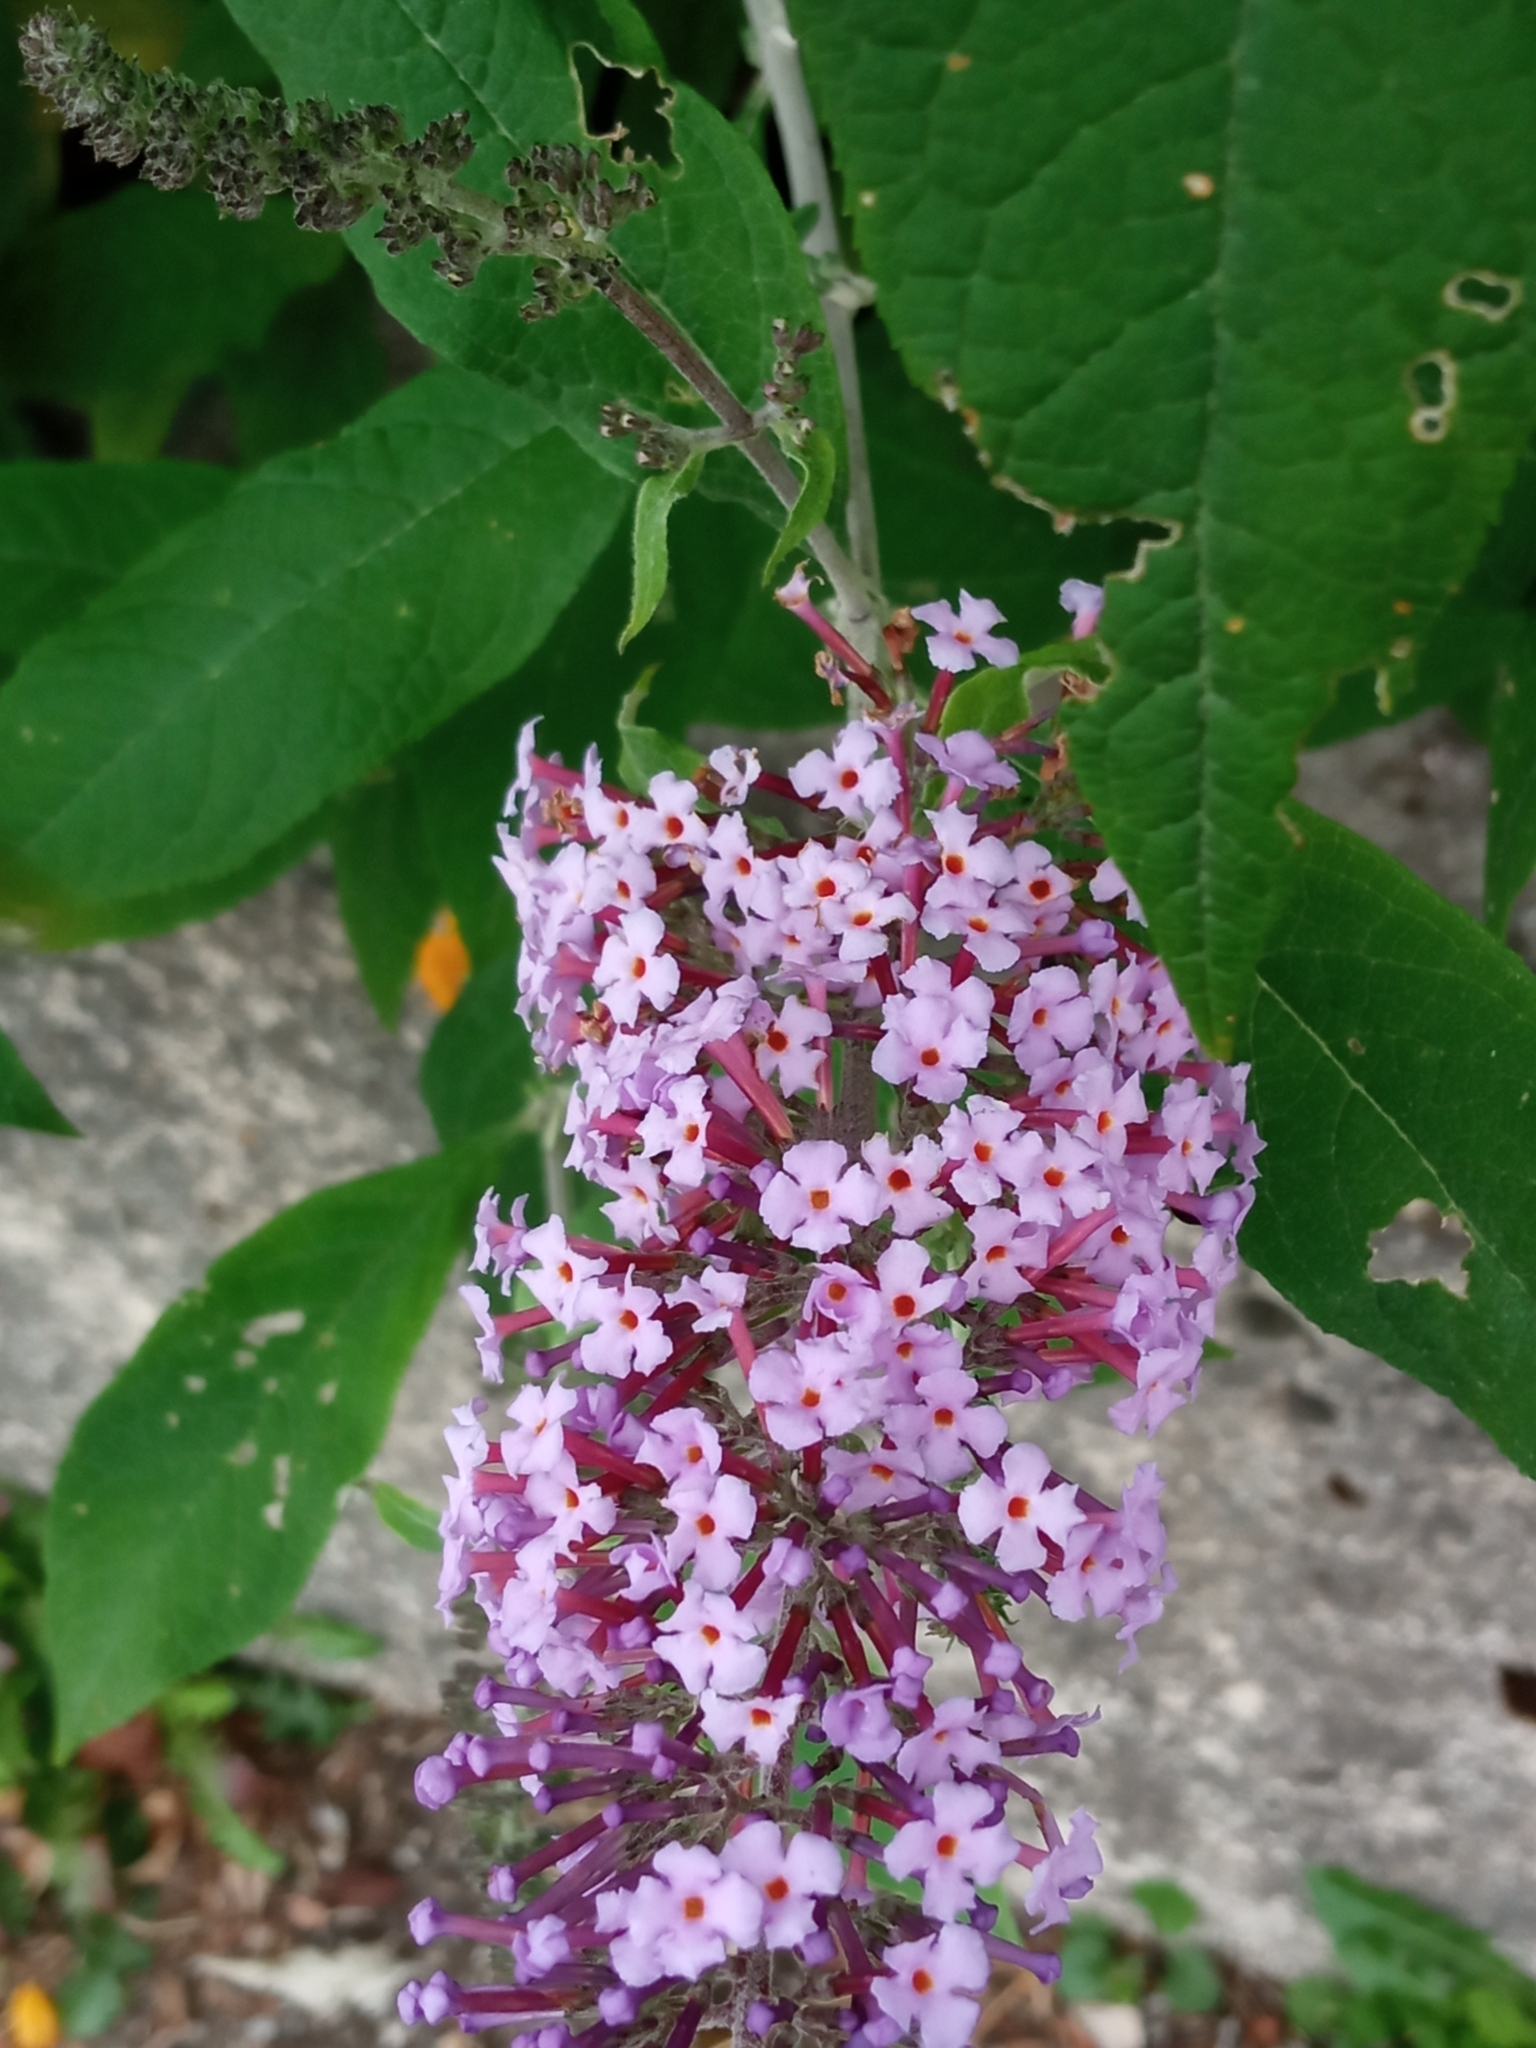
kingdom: Plantae
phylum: Tracheophyta
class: Magnoliopsida
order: Lamiales
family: Scrophulariaceae
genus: Buddleja
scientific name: Buddleja davidii
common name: Butterfly-bush
